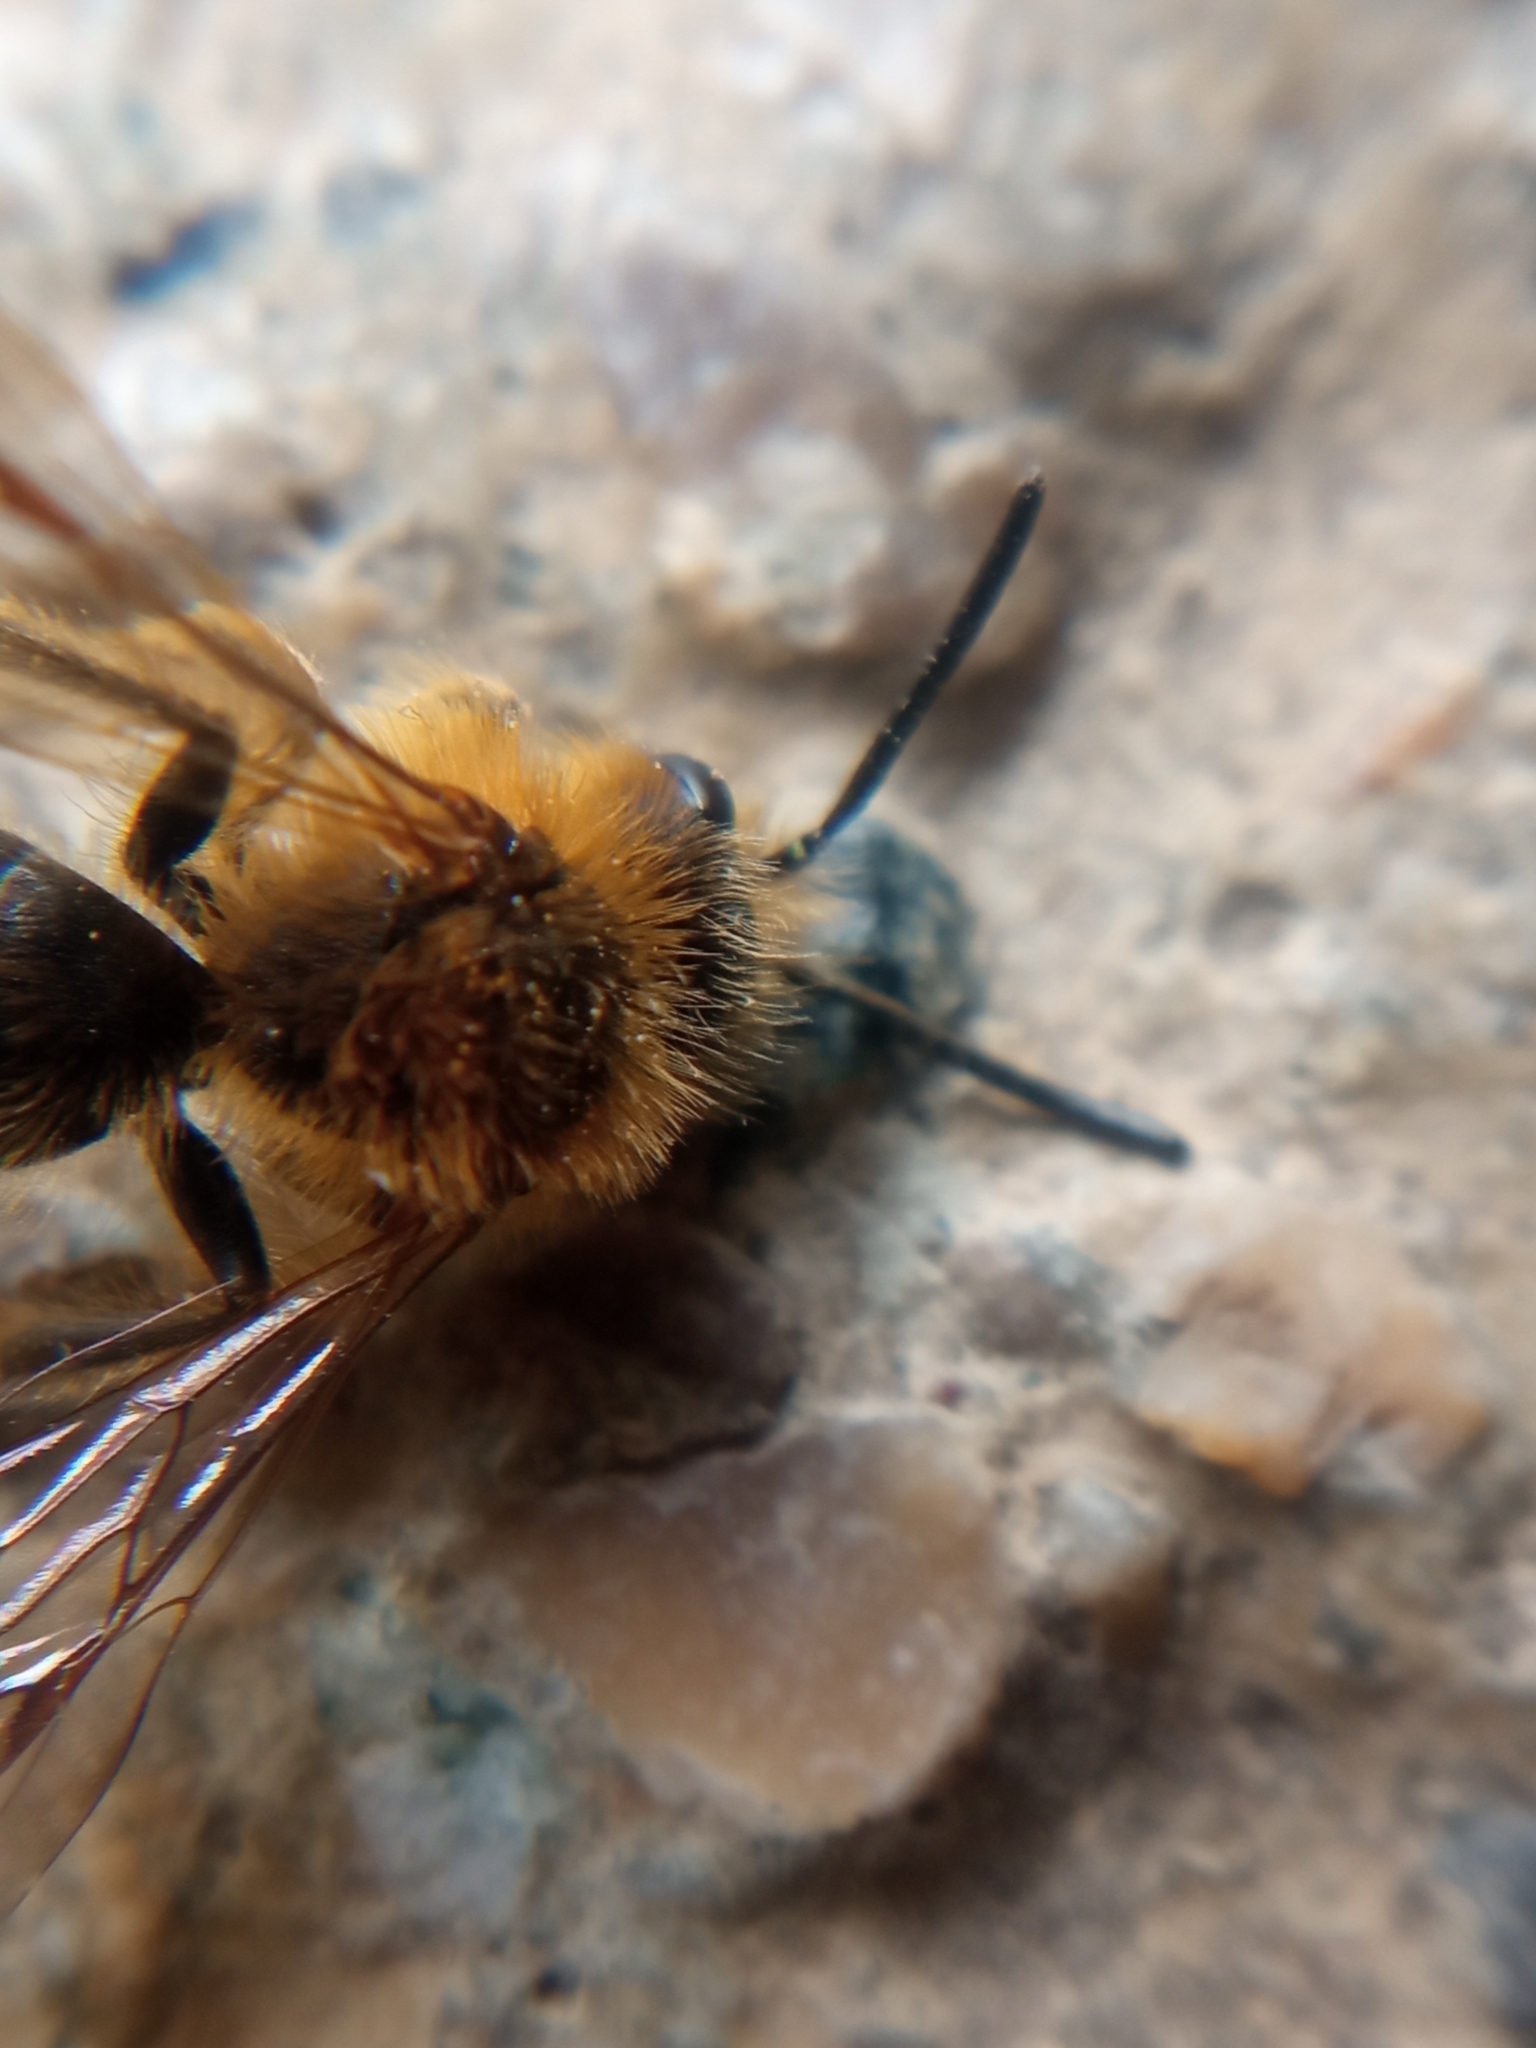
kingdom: Animalia
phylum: Arthropoda
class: Insecta
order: Hymenoptera
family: Andrenidae
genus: Andrena
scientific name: Andrena lagopus
